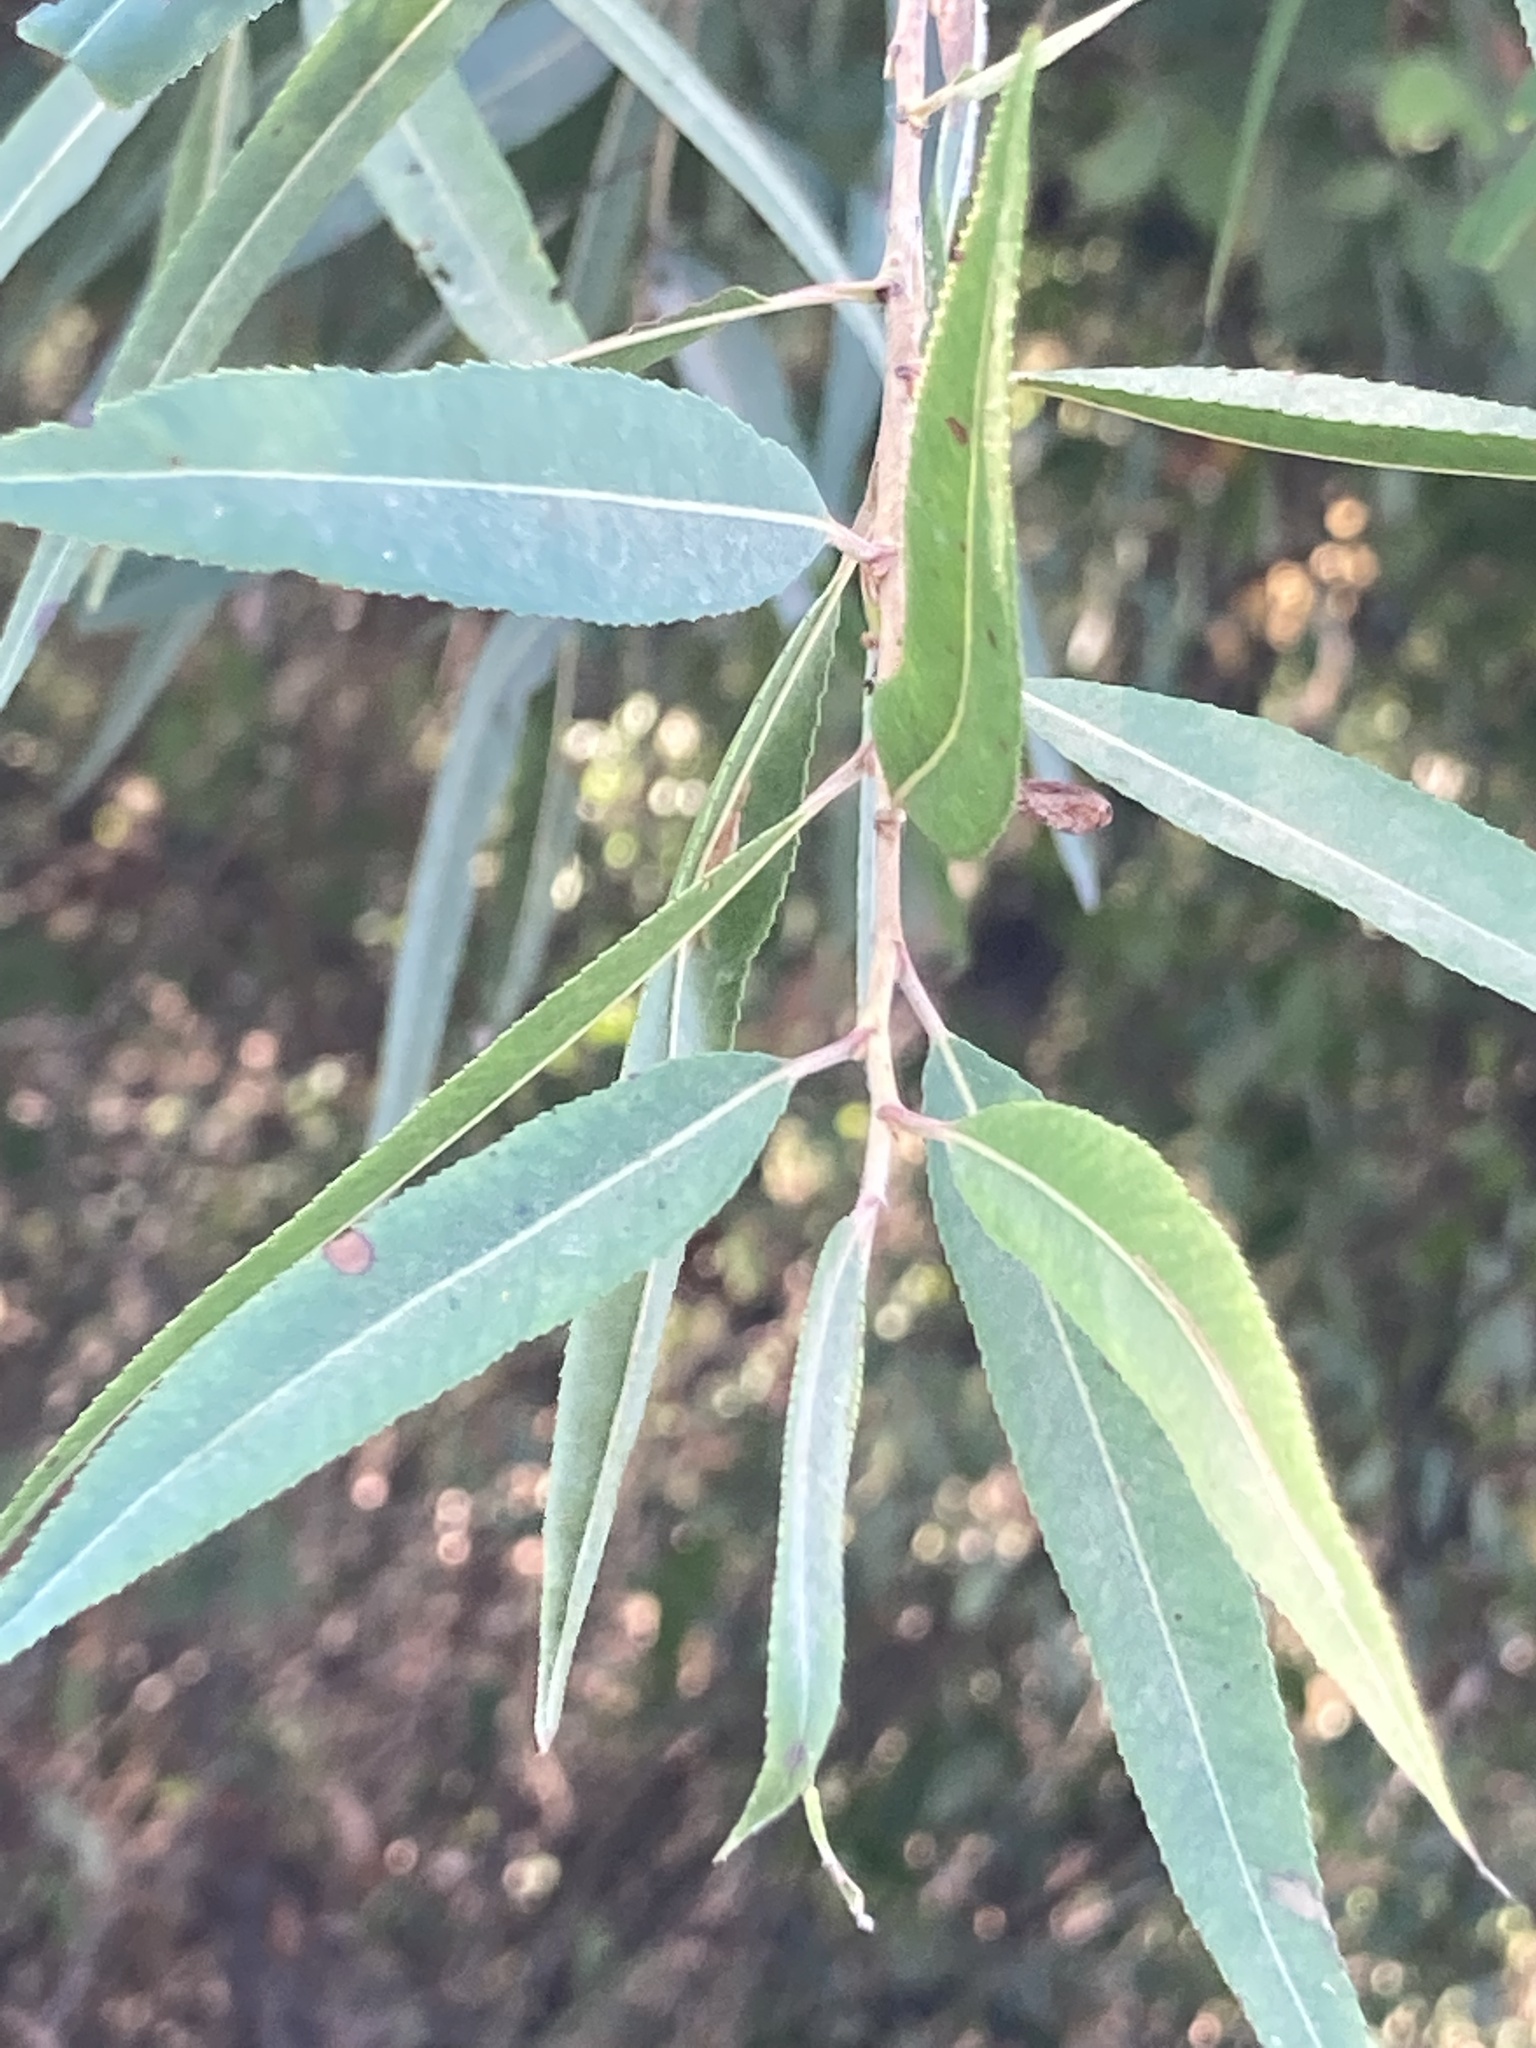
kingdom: Plantae
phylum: Tracheophyta
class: Magnoliopsida
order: Malpighiales
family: Salicaceae
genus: Salix
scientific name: Salix nigra
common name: Black willow
